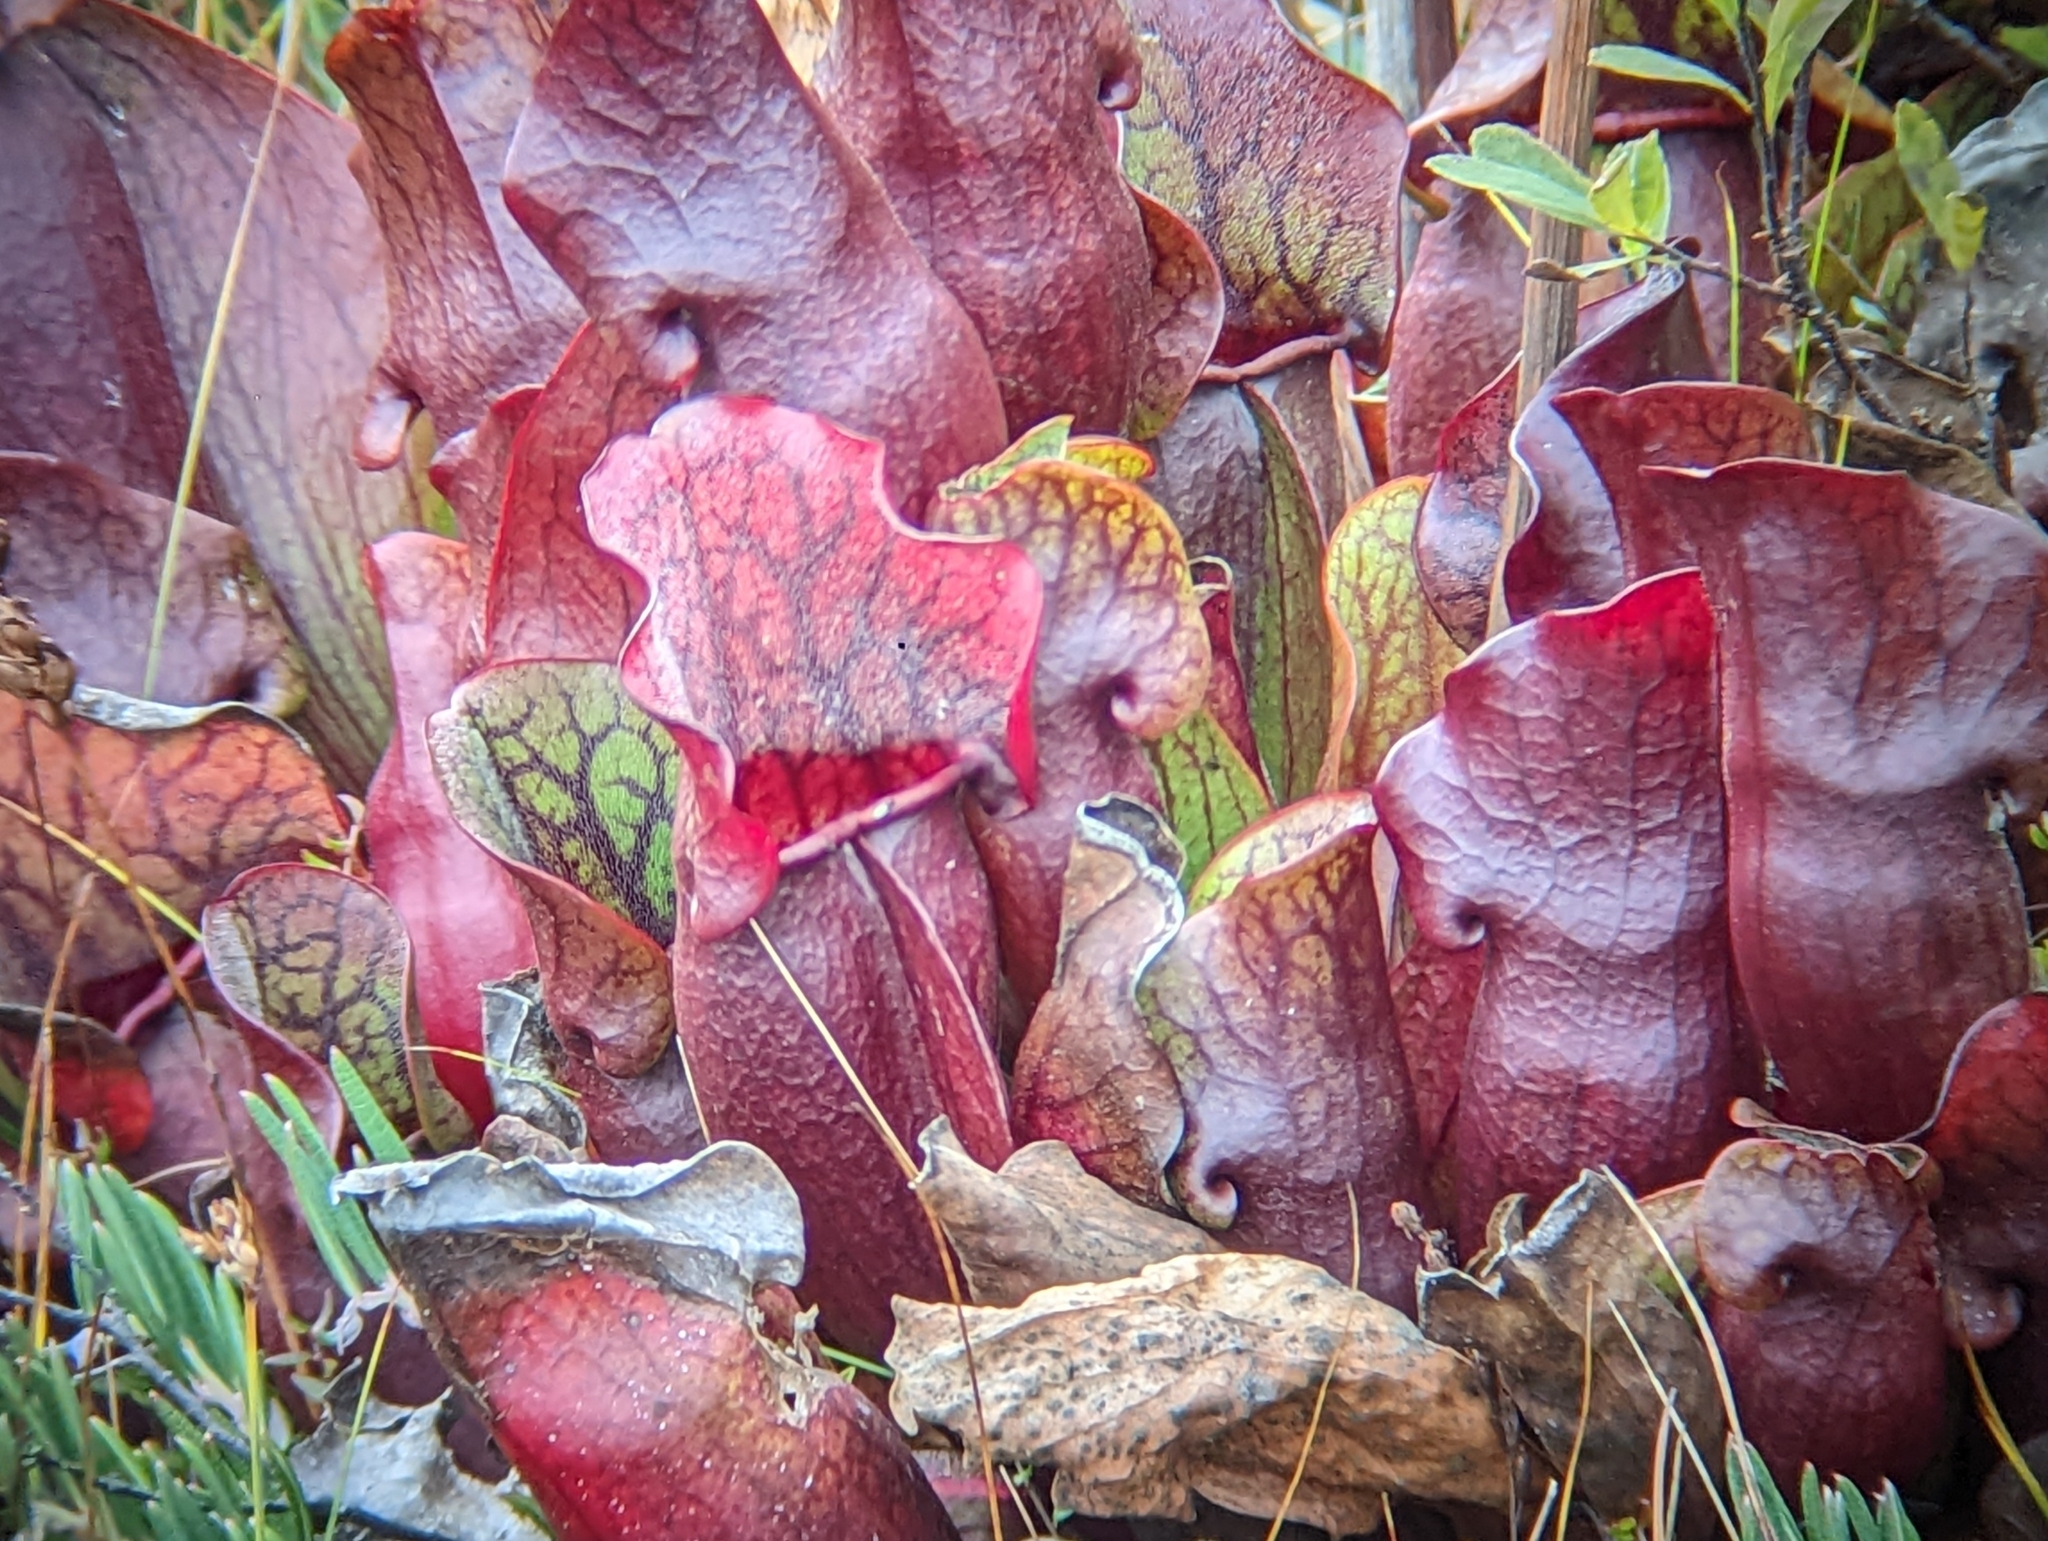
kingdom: Plantae
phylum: Tracheophyta
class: Magnoliopsida
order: Ericales
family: Sarraceniaceae
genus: Sarracenia
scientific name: Sarracenia purpurea
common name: Pitcherplant
